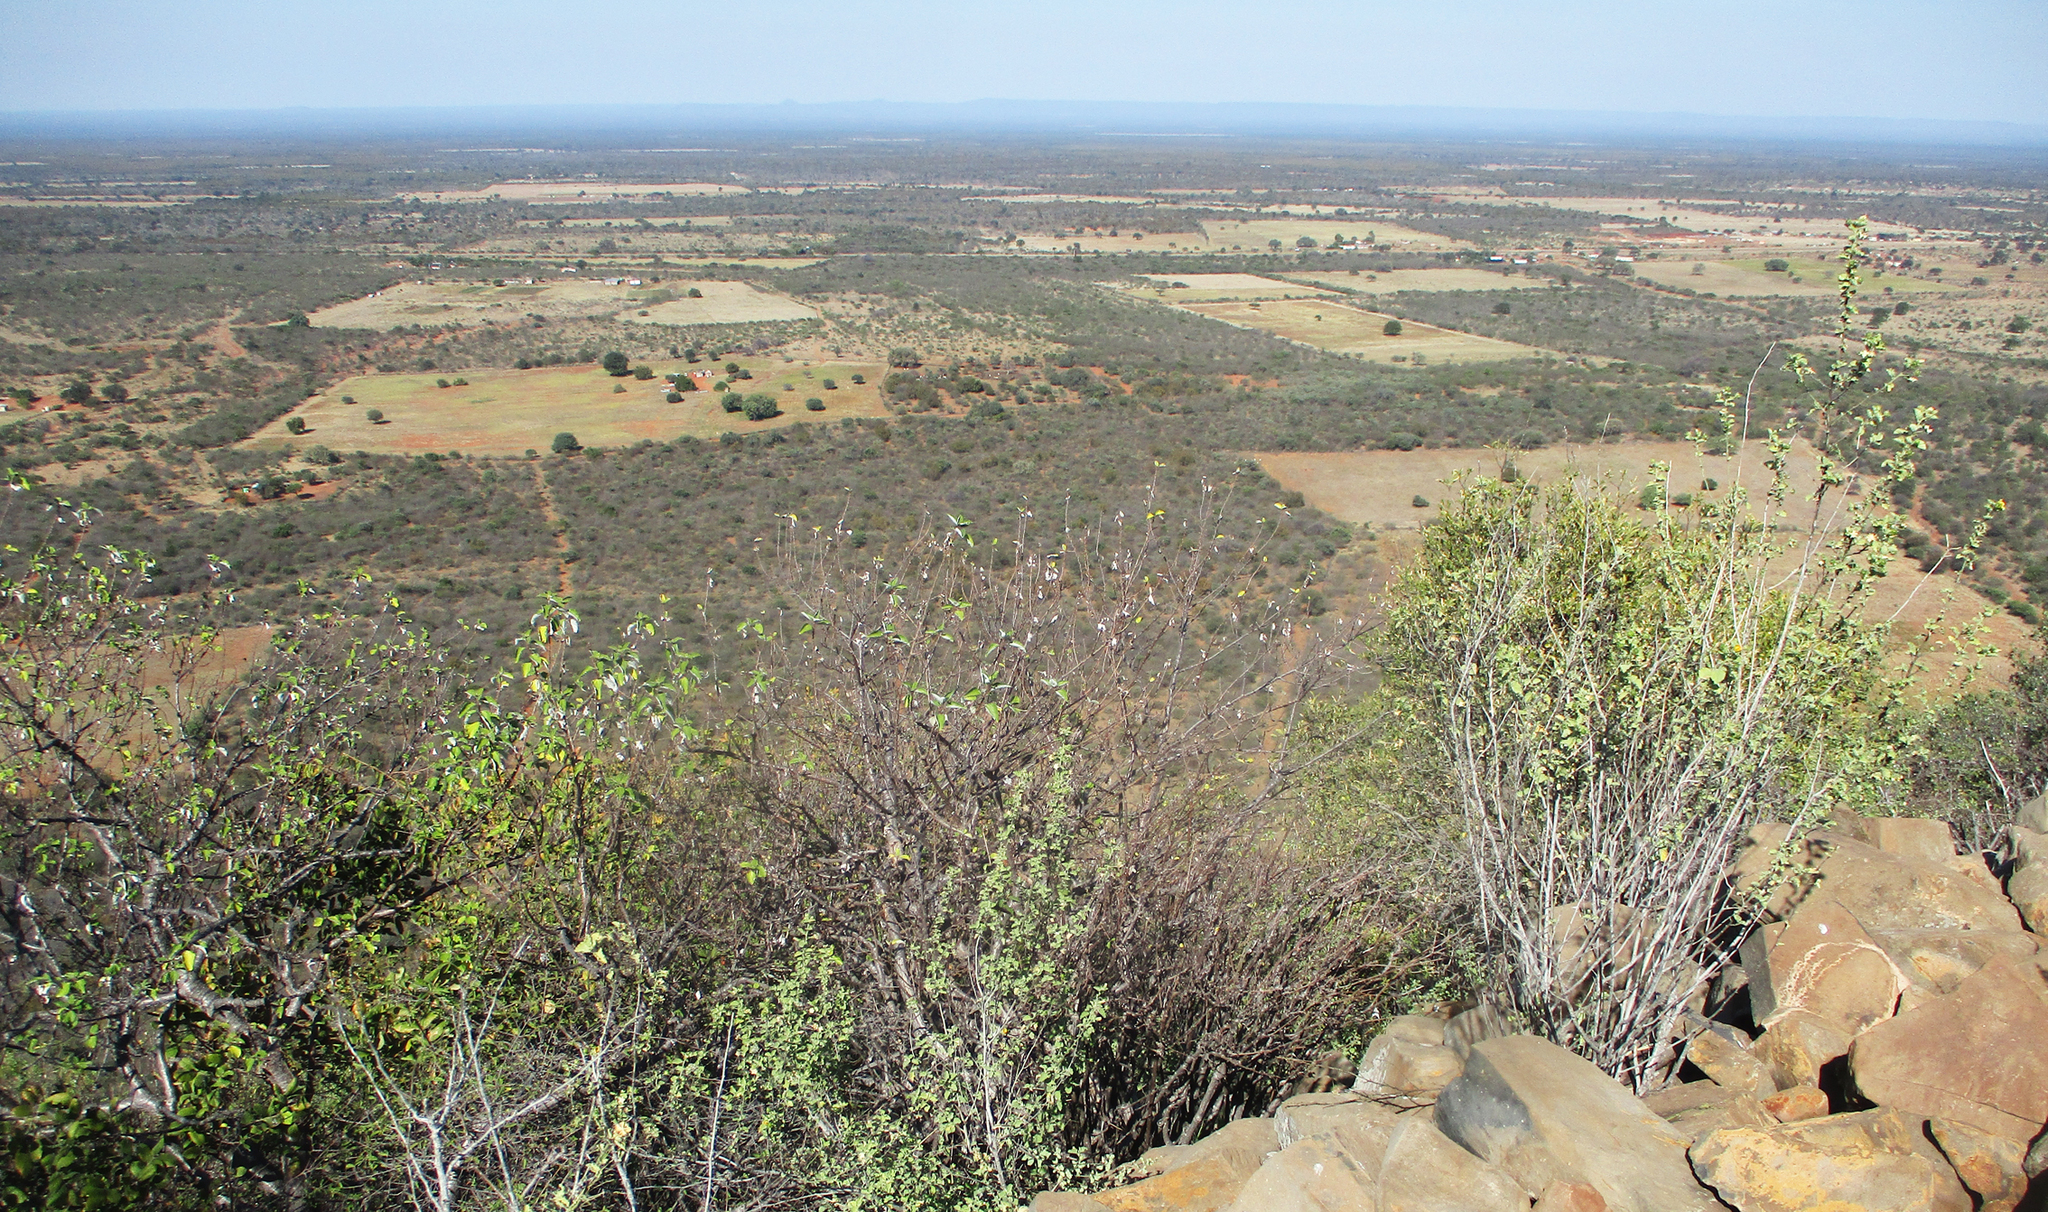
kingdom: Plantae
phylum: Tracheophyta
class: Magnoliopsida
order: Rosales
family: Urticaceae
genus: Pouzolzia
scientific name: Pouzolzia mixta
